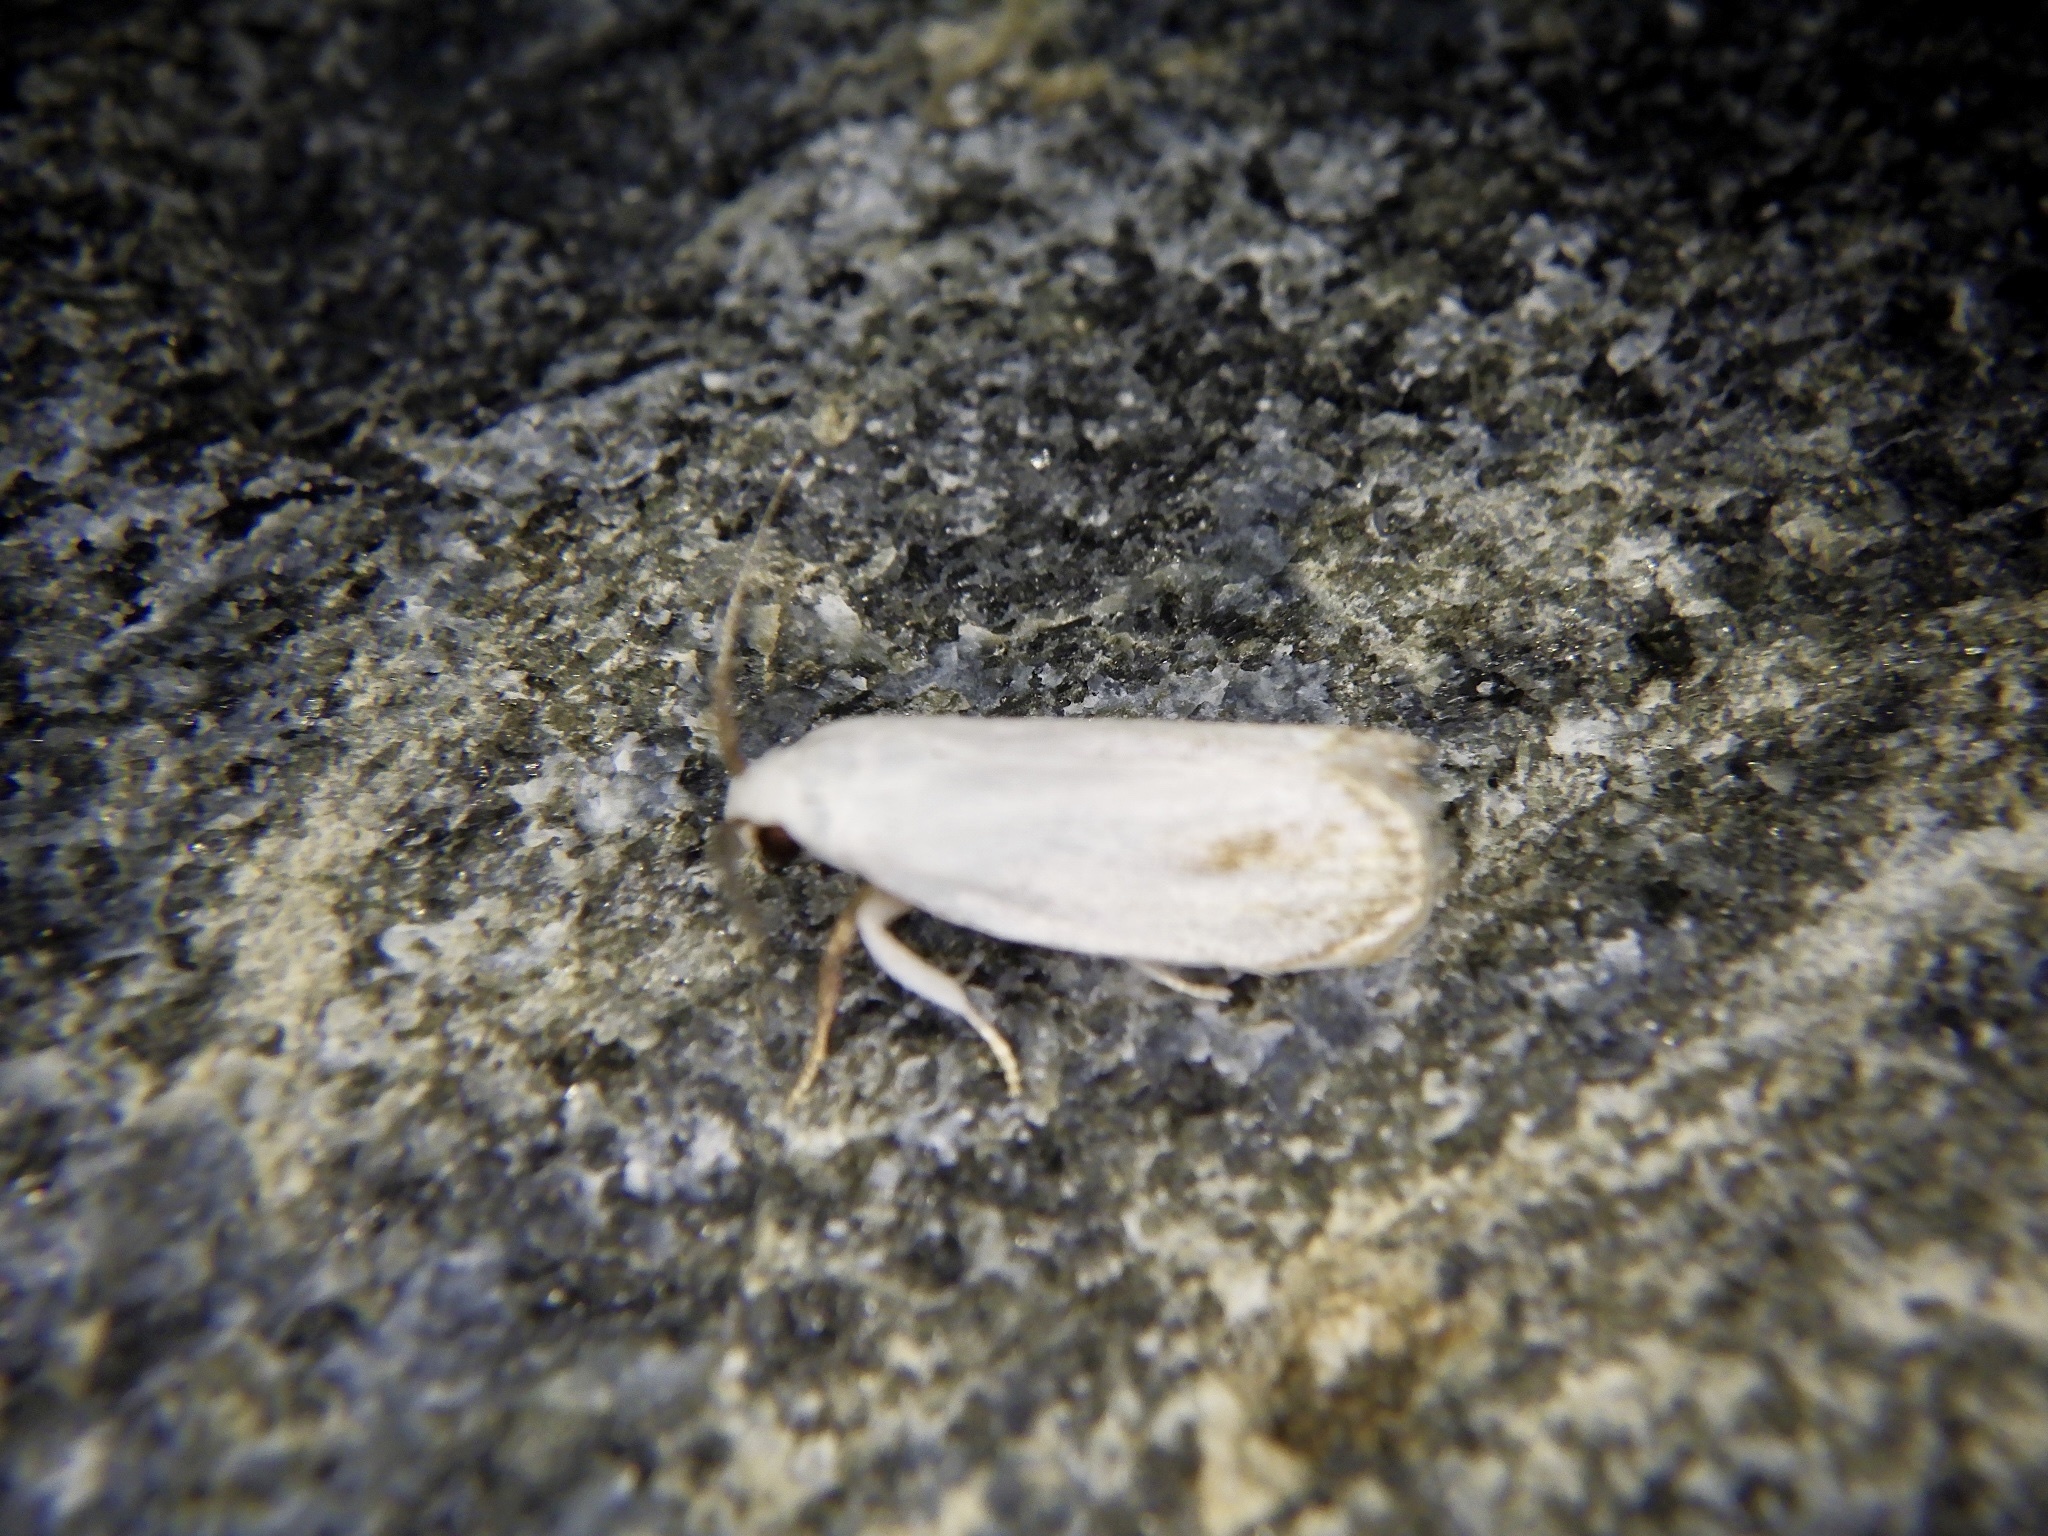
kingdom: Animalia
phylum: Arthropoda
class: Insecta
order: Lepidoptera
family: Xyloryctidae
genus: Metathrinca
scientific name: Metathrinca tsugensis
